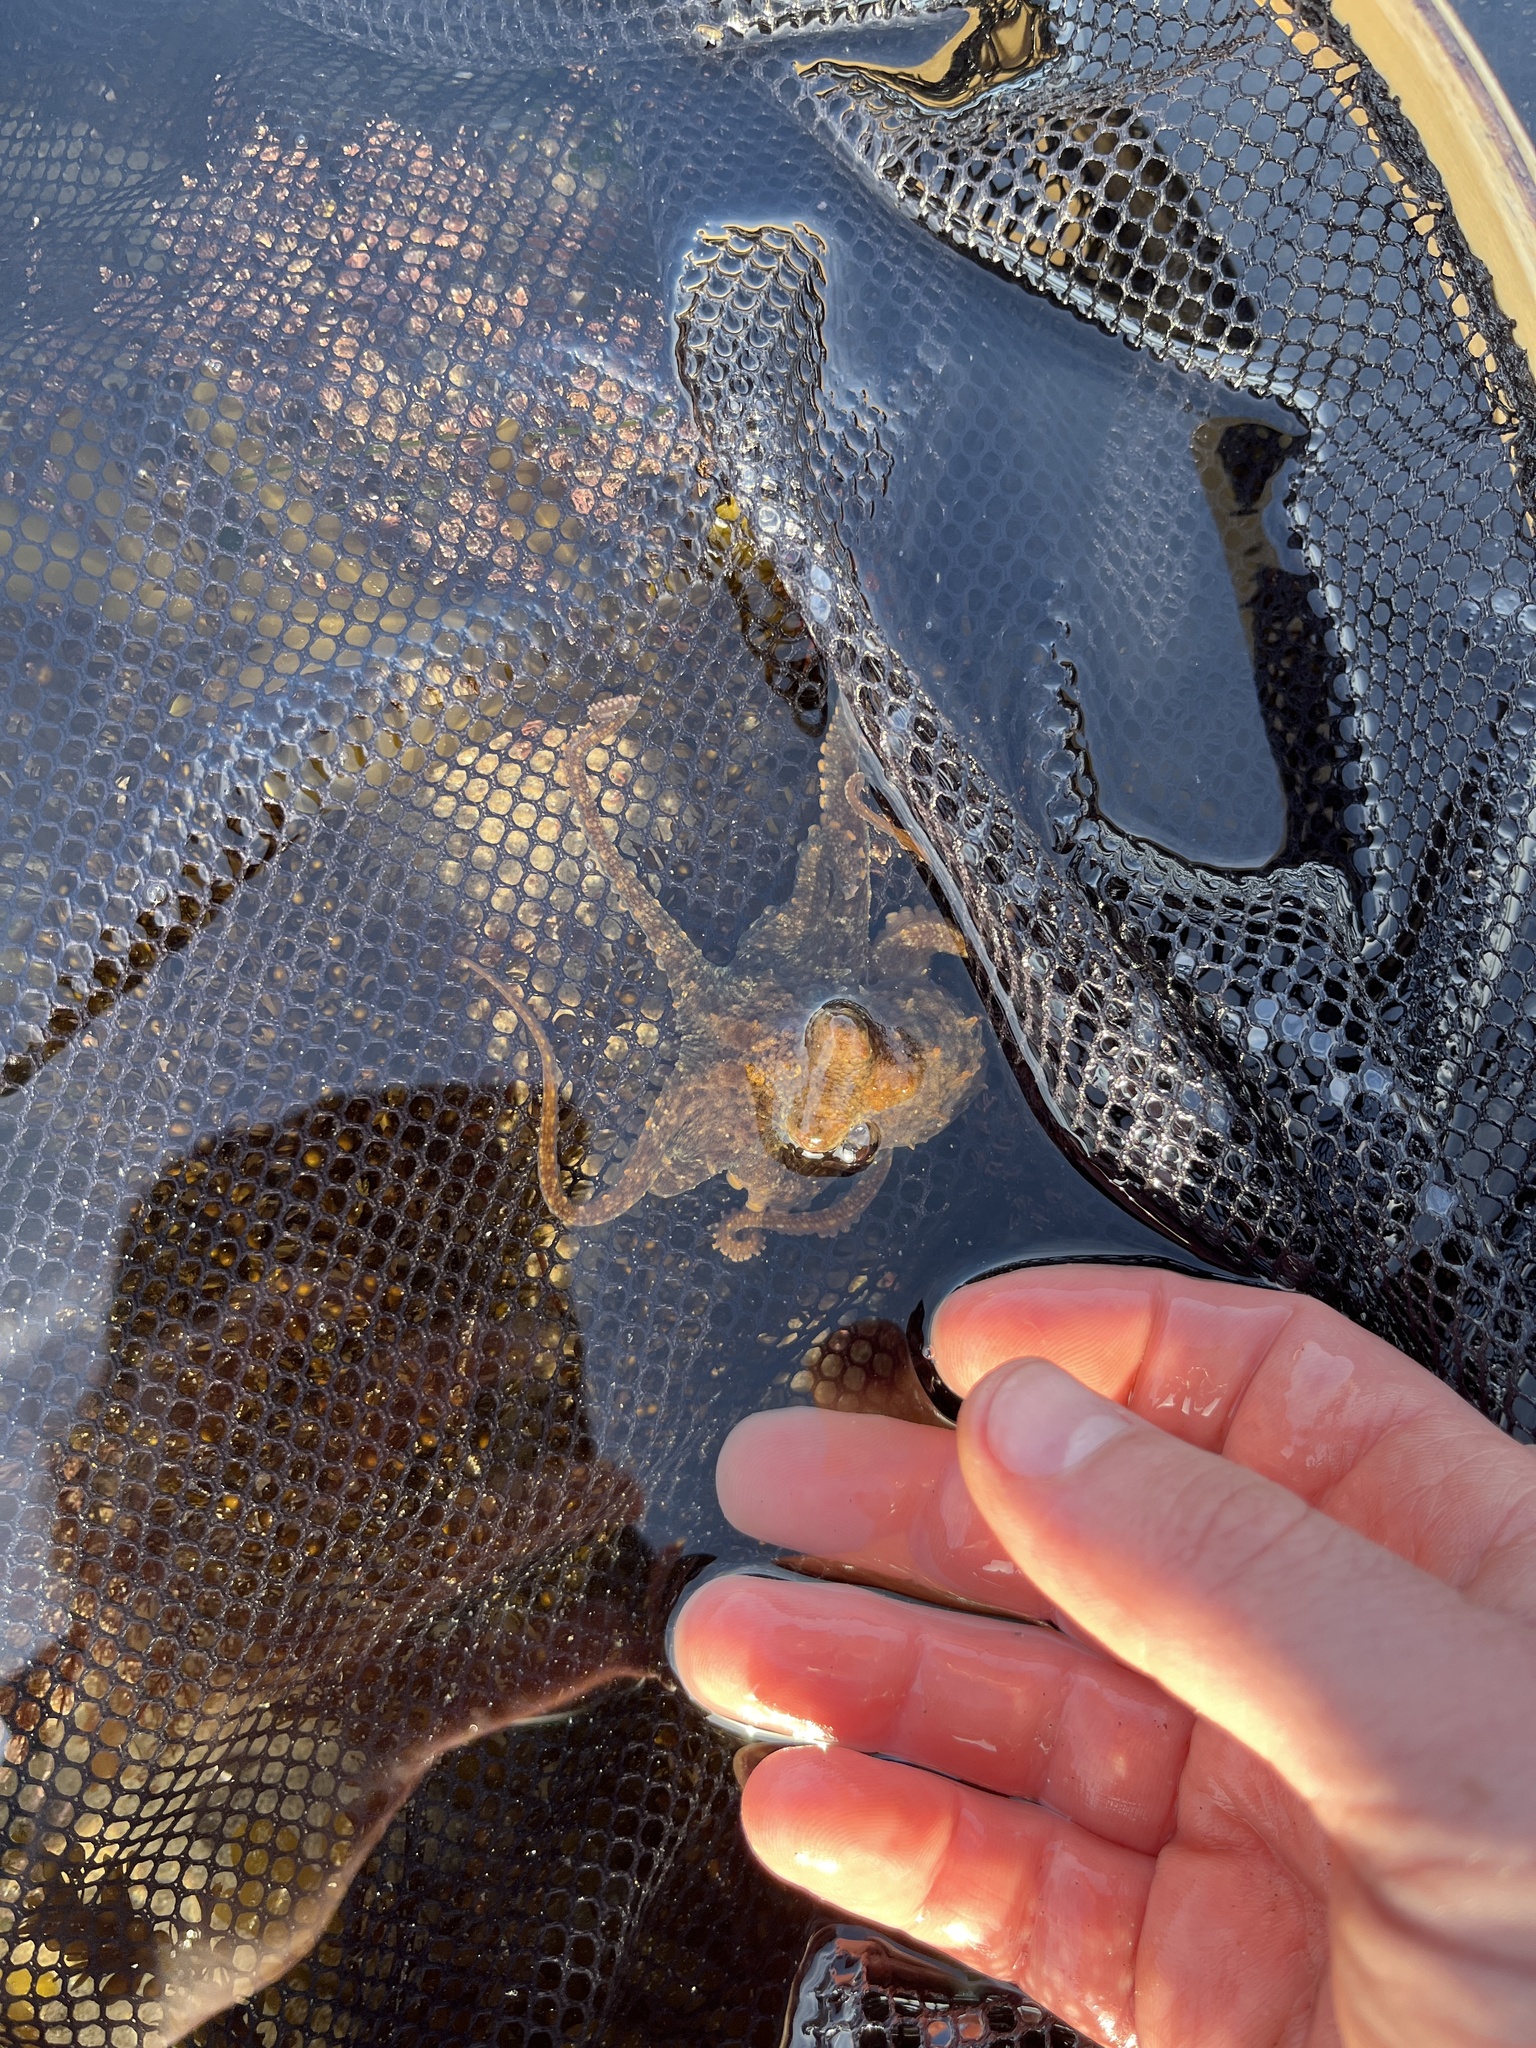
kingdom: Animalia
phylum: Mollusca
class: Cephalopoda
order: Octopoda
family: Octopodidae
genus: Octopus
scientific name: Octopus bimaculoides
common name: California two-spot octopus
